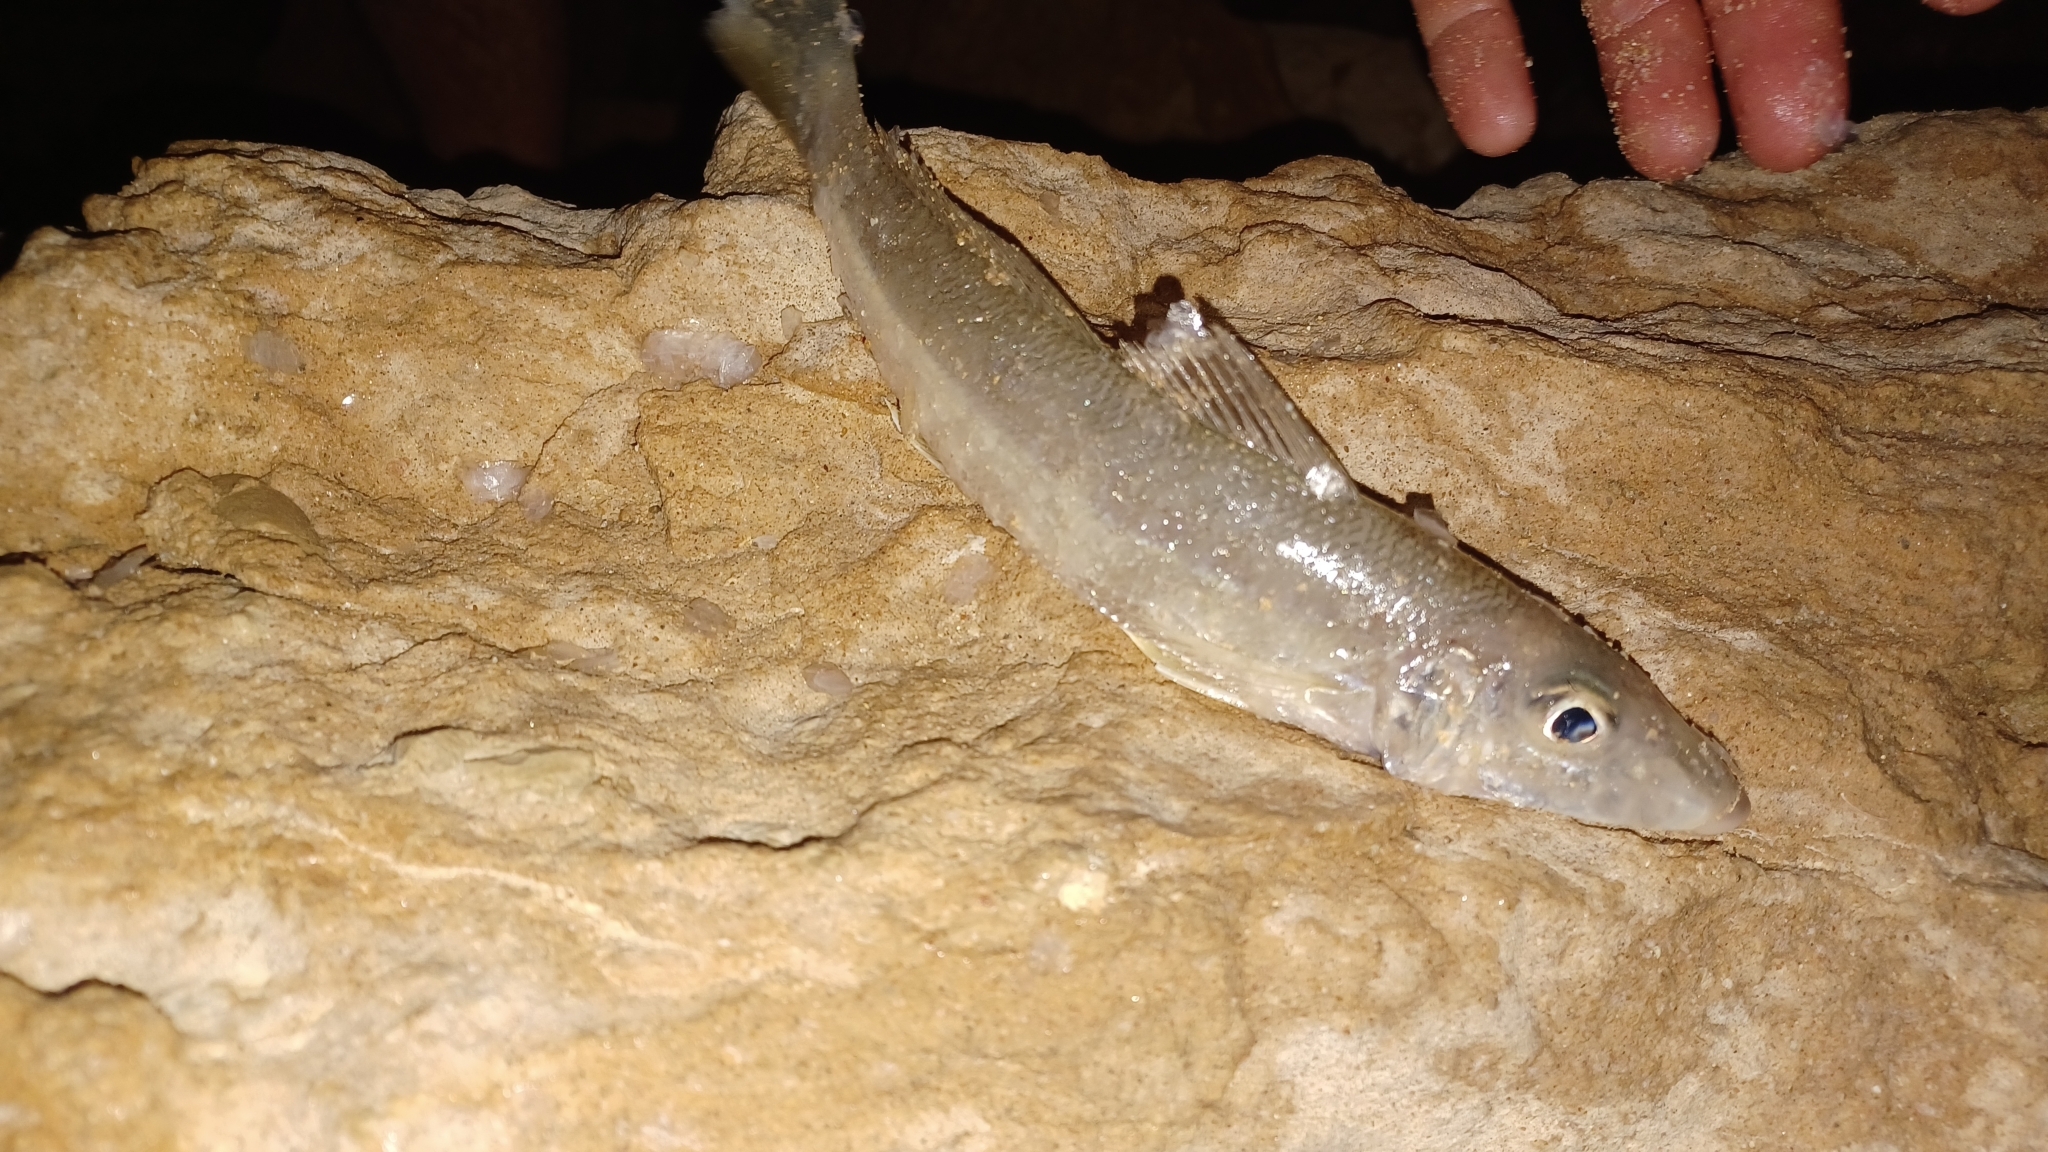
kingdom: Animalia
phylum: Chordata
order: Perciformes
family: Sillaginidae
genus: Sillago
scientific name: Sillago schomburgkii
